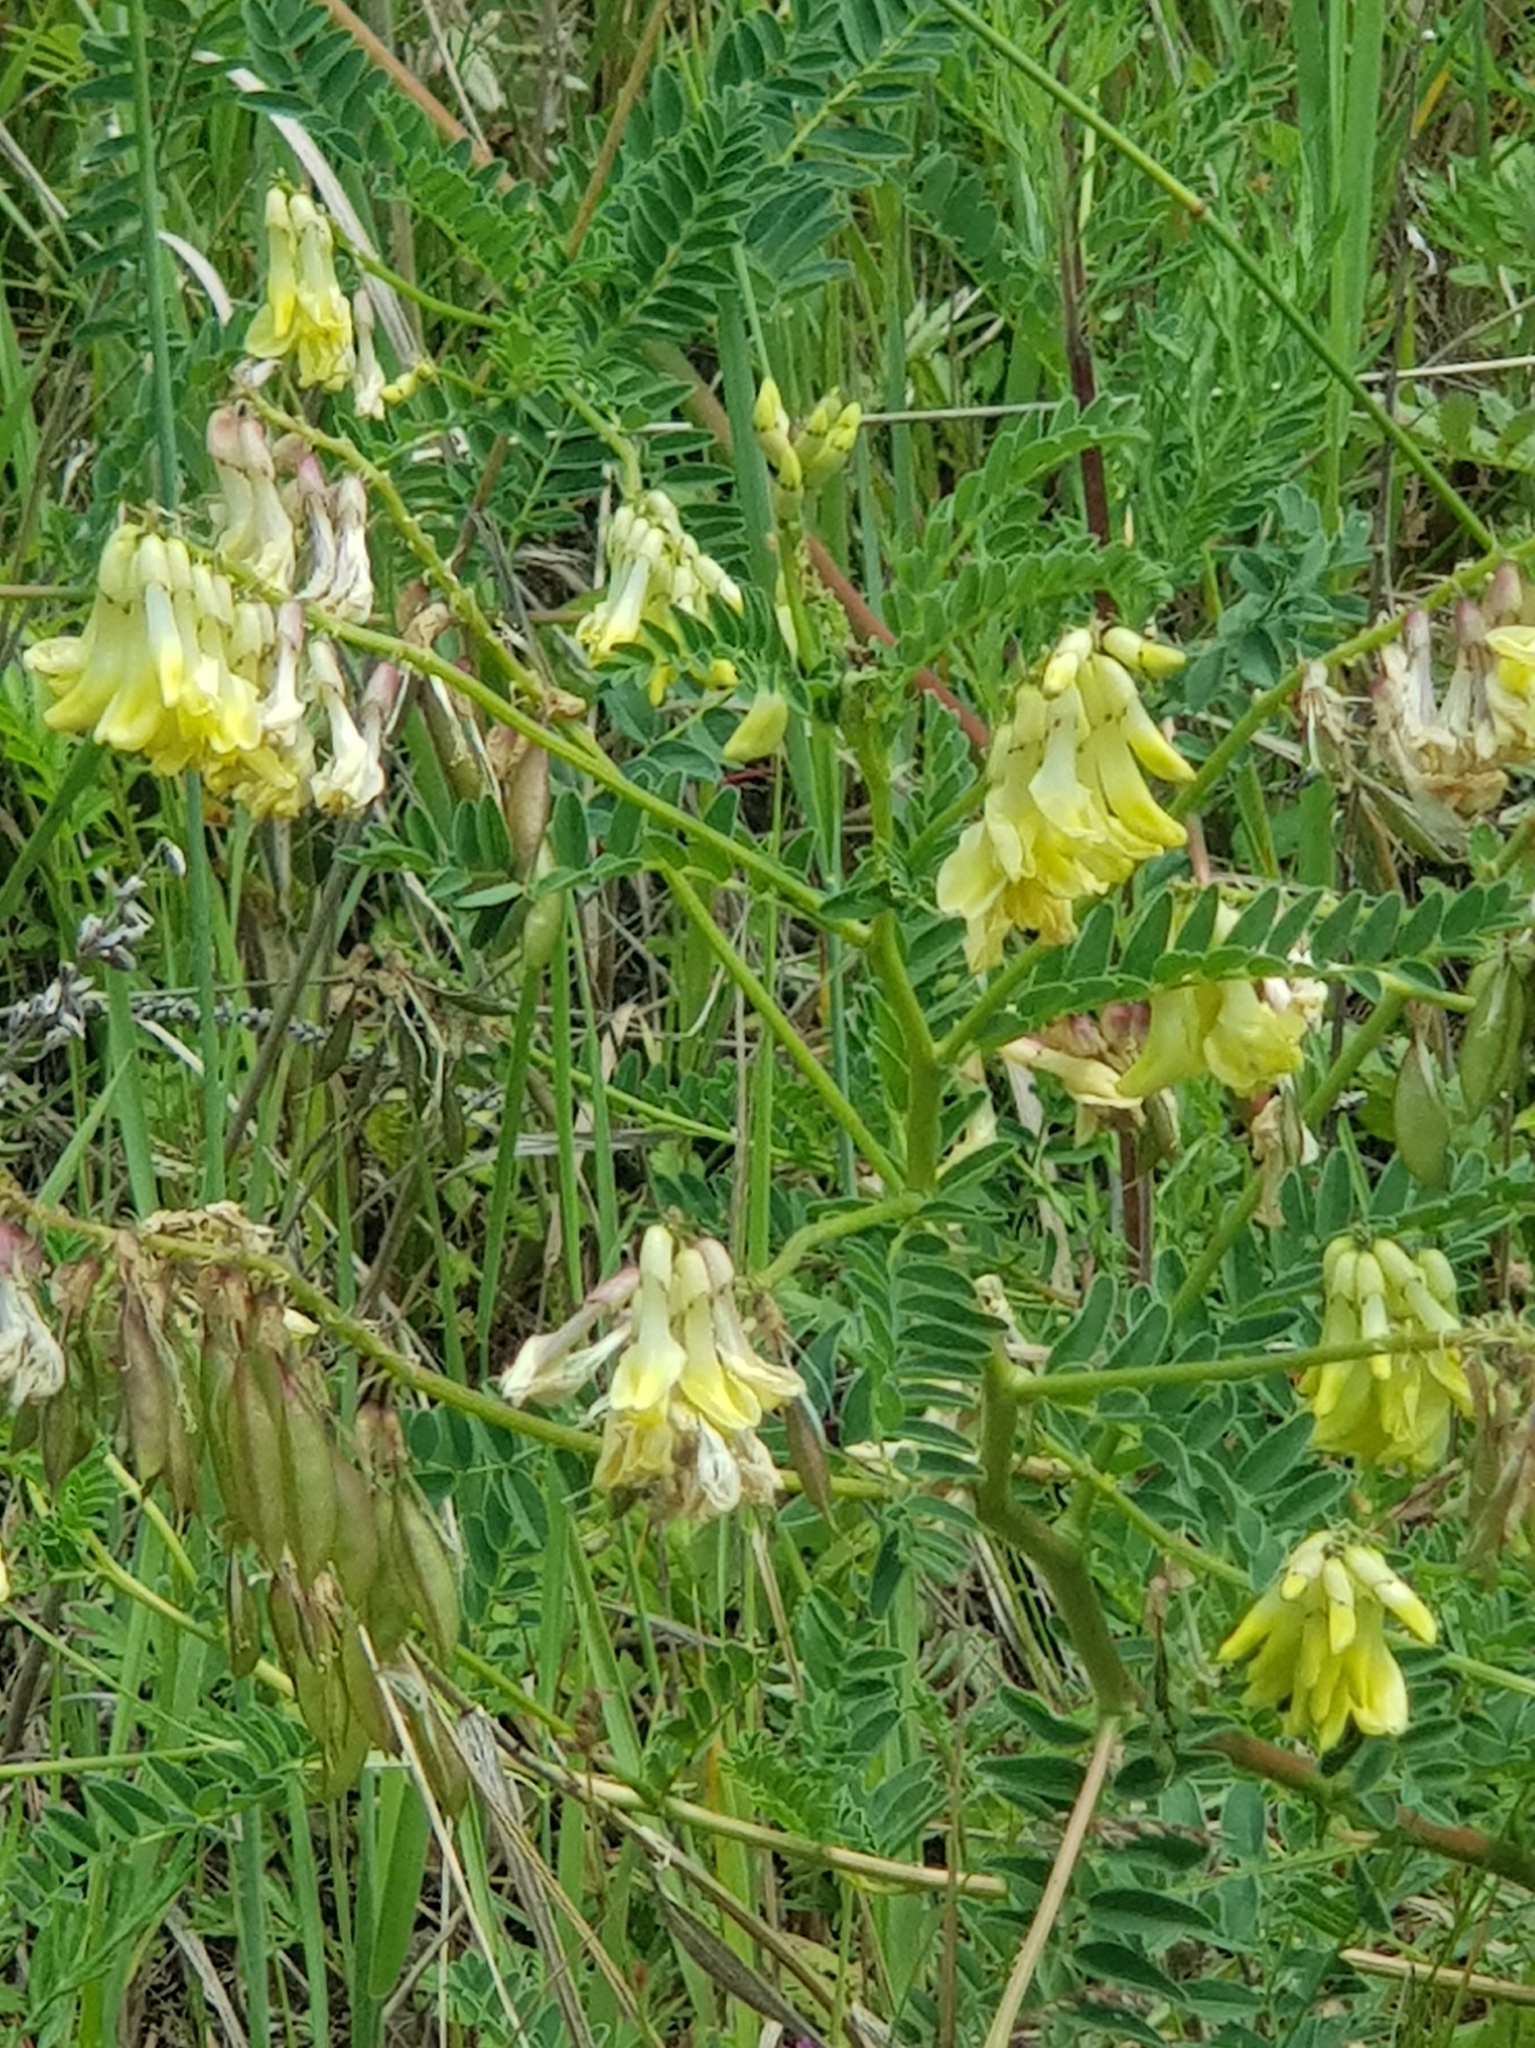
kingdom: Plantae
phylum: Tracheophyta
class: Magnoliopsida
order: Fabales
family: Fabaceae
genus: Astragalus
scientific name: Astragalus mongholicus
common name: Membranous milk-vetch
